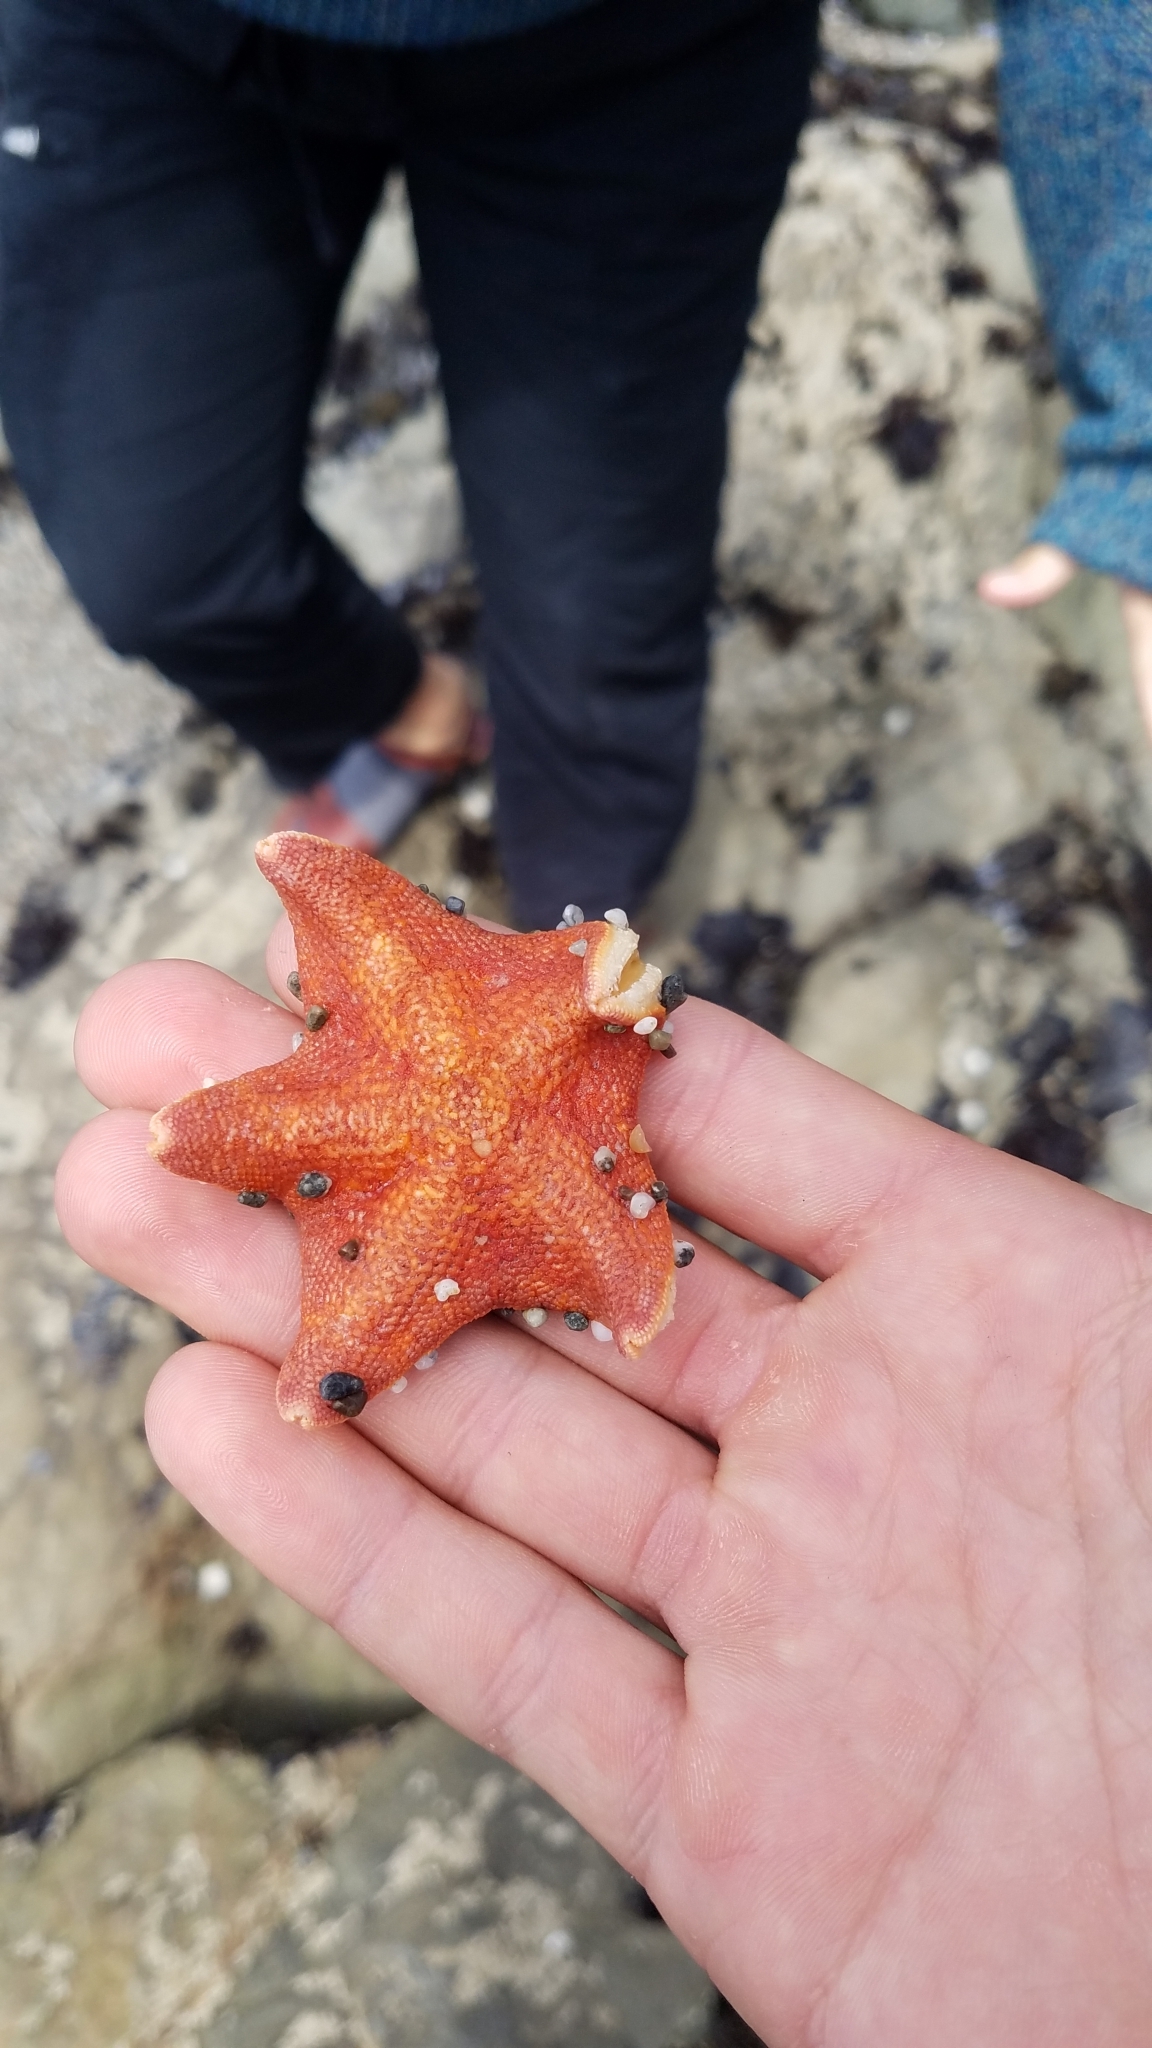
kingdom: Animalia
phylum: Echinodermata
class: Asteroidea
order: Valvatida
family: Asterinidae
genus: Patiria
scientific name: Patiria miniata
